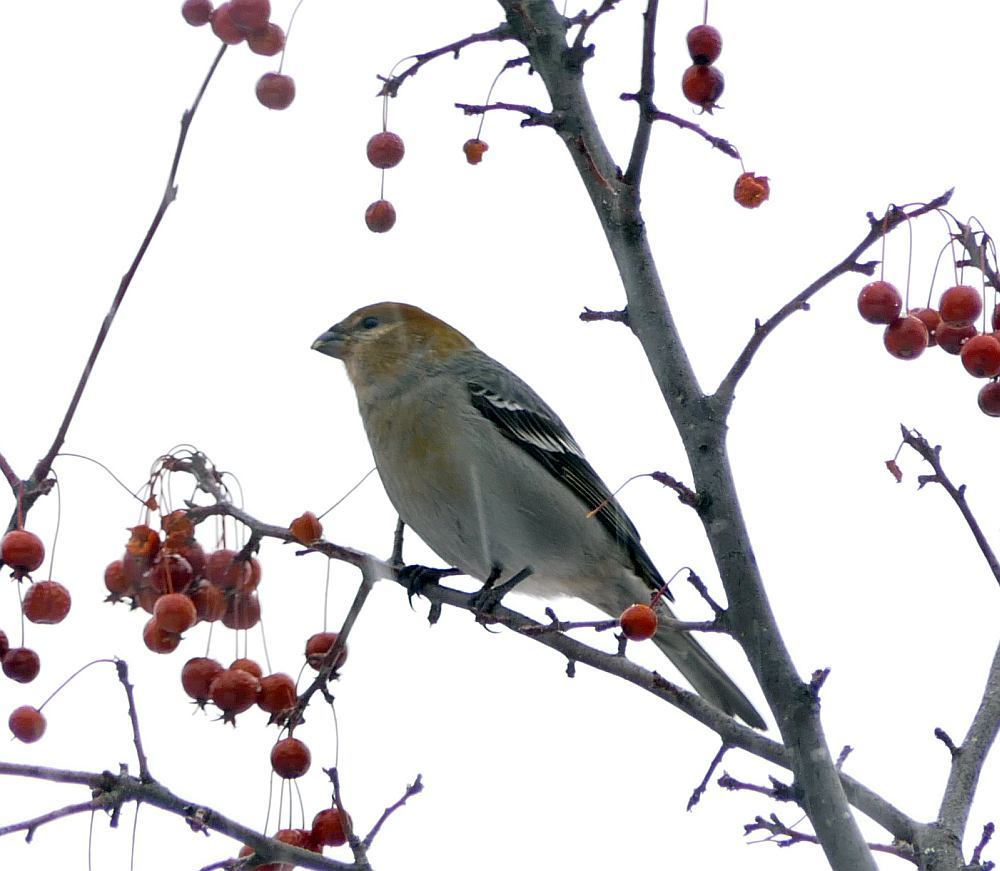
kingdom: Animalia
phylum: Chordata
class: Aves
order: Passeriformes
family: Fringillidae
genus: Pinicola
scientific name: Pinicola enucleator
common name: Pine grosbeak
